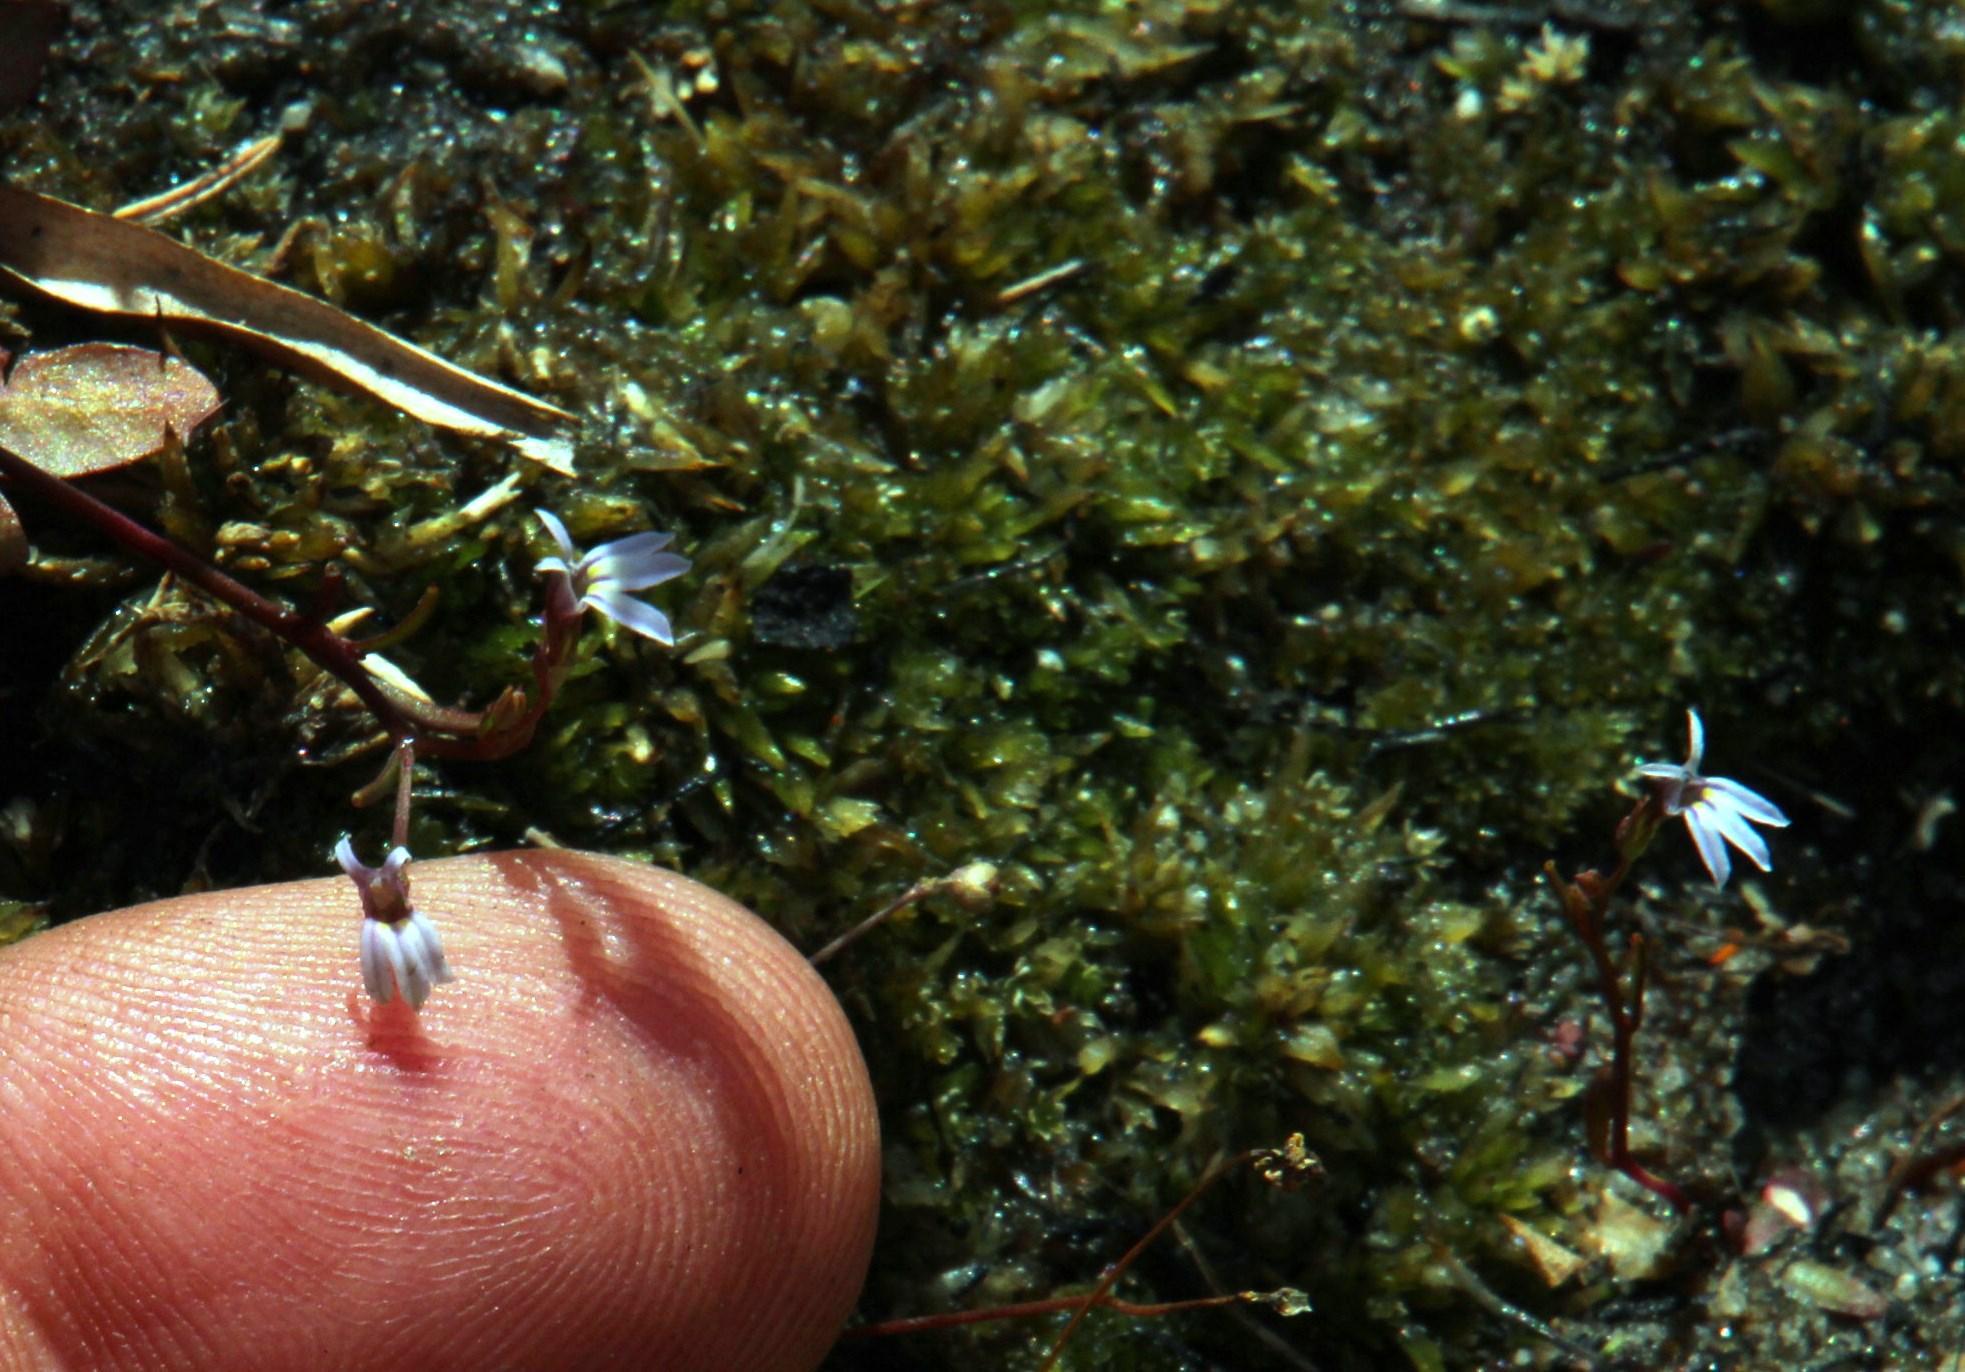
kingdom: Plantae
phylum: Tracheophyta
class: Magnoliopsida
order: Asterales
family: Campanulaceae
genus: Wimmerella
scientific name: Wimmerella arabidea
